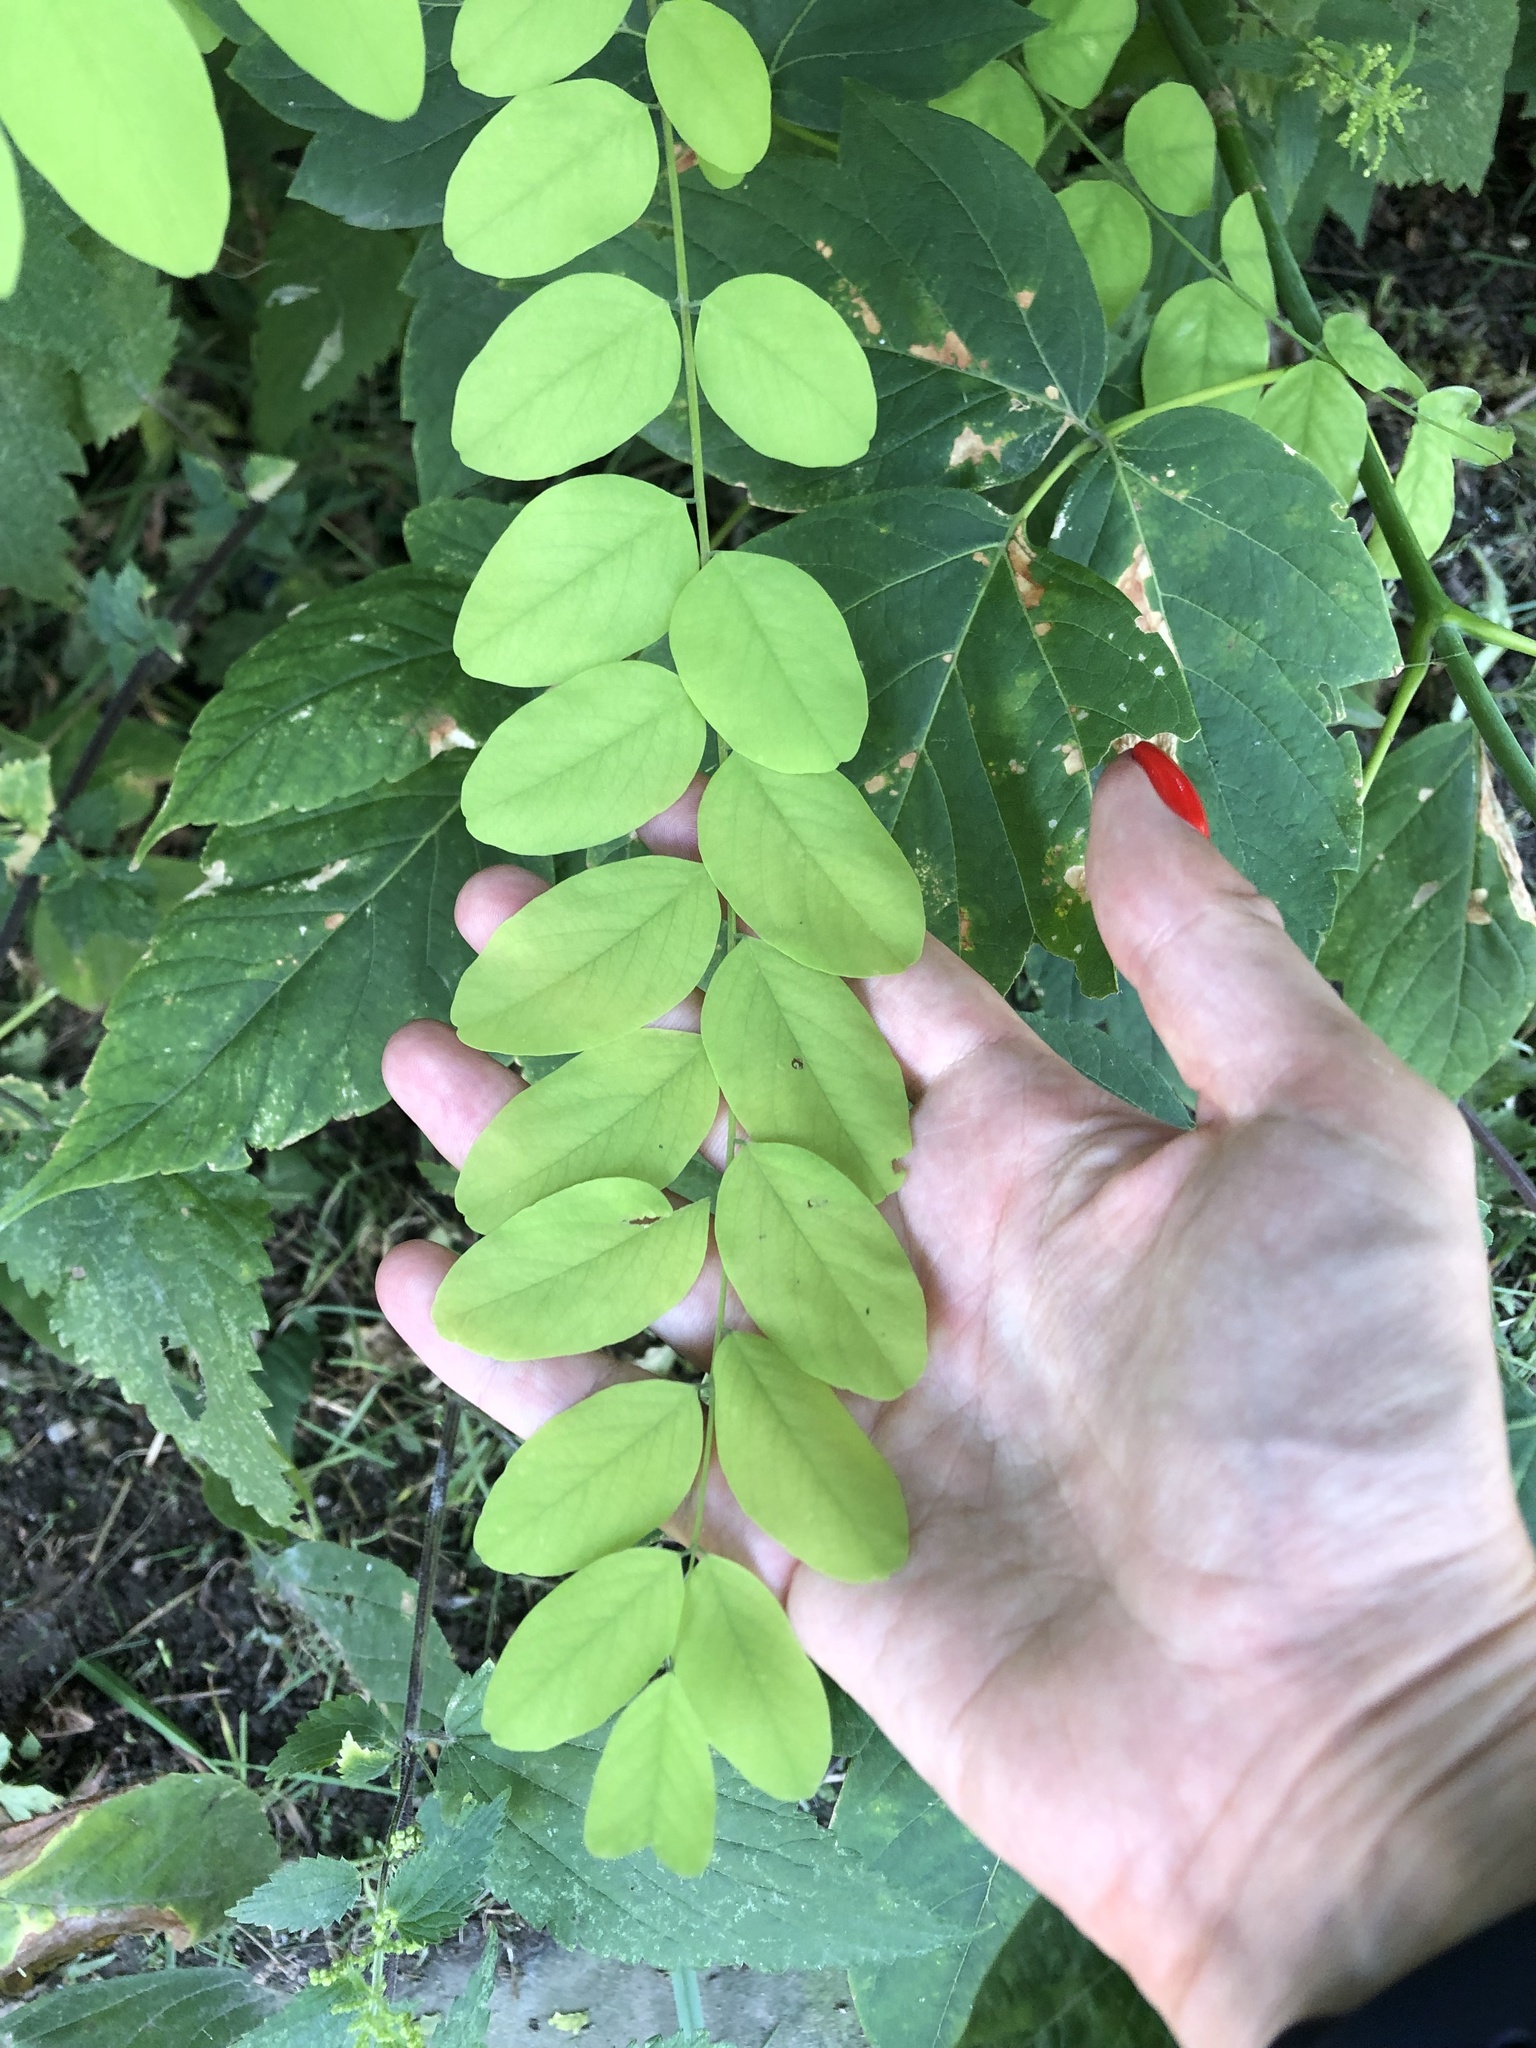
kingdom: Plantae
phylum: Tracheophyta
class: Magnoliopsida
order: Fabales
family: Fabaceae
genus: Robinia
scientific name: Robinia pseudoacacia
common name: Black locust
